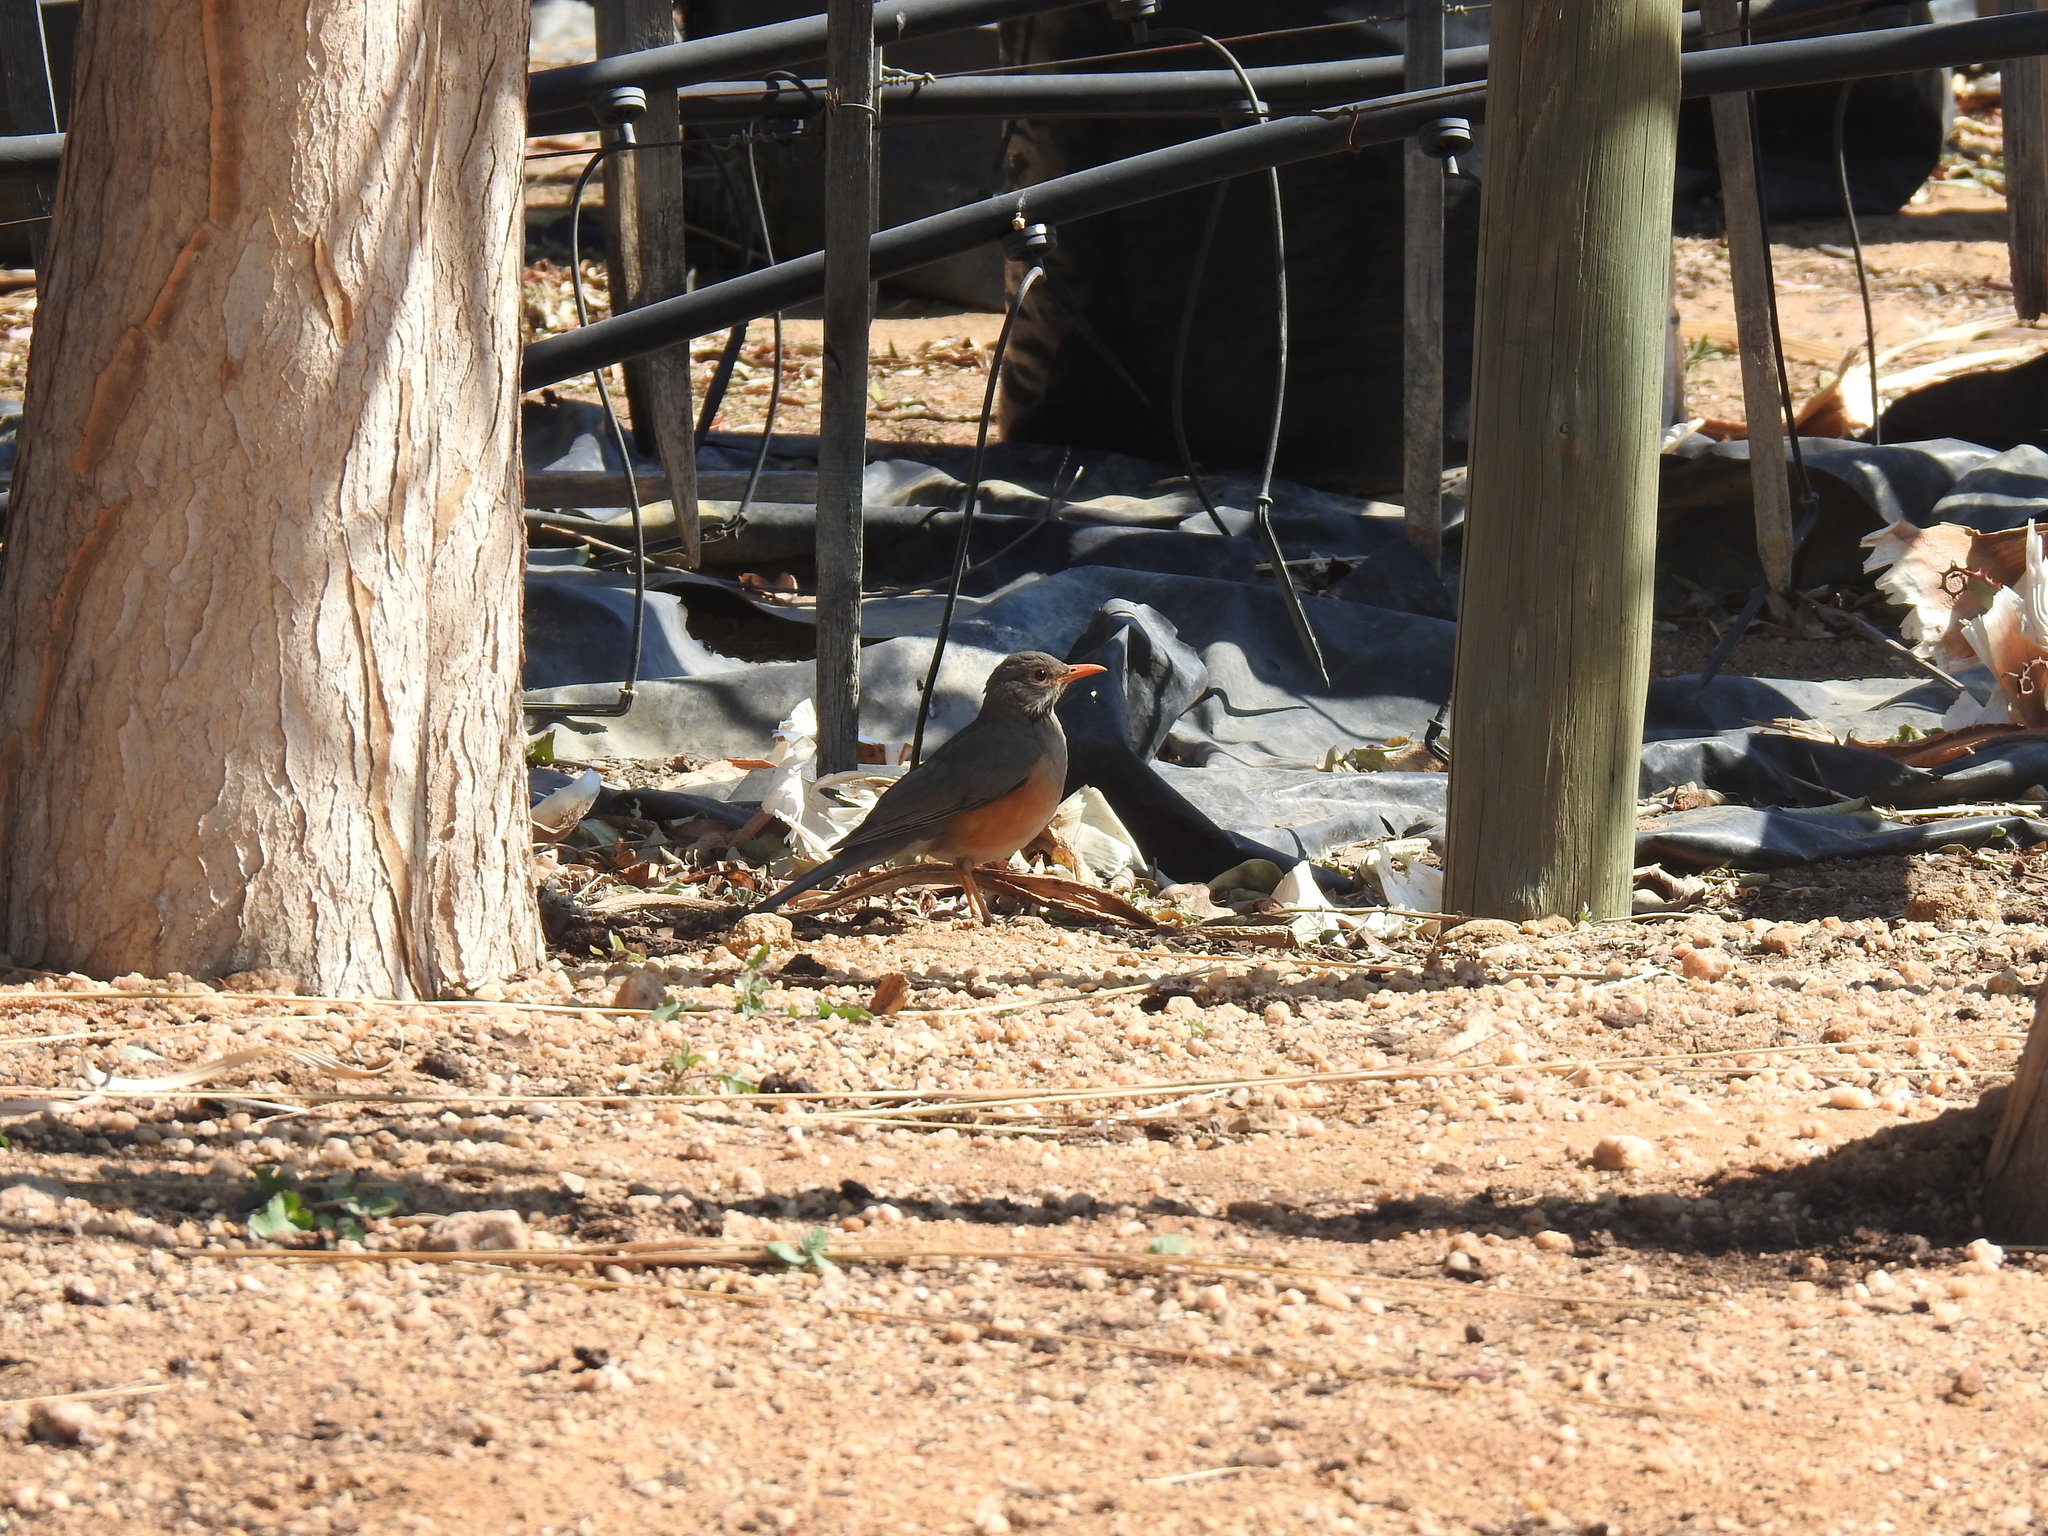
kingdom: Animalia
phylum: Chordata
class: Aves
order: Passeriformes
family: Turdidae
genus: Turdus
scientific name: Turdus libonyana
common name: Kurrichane thrush
